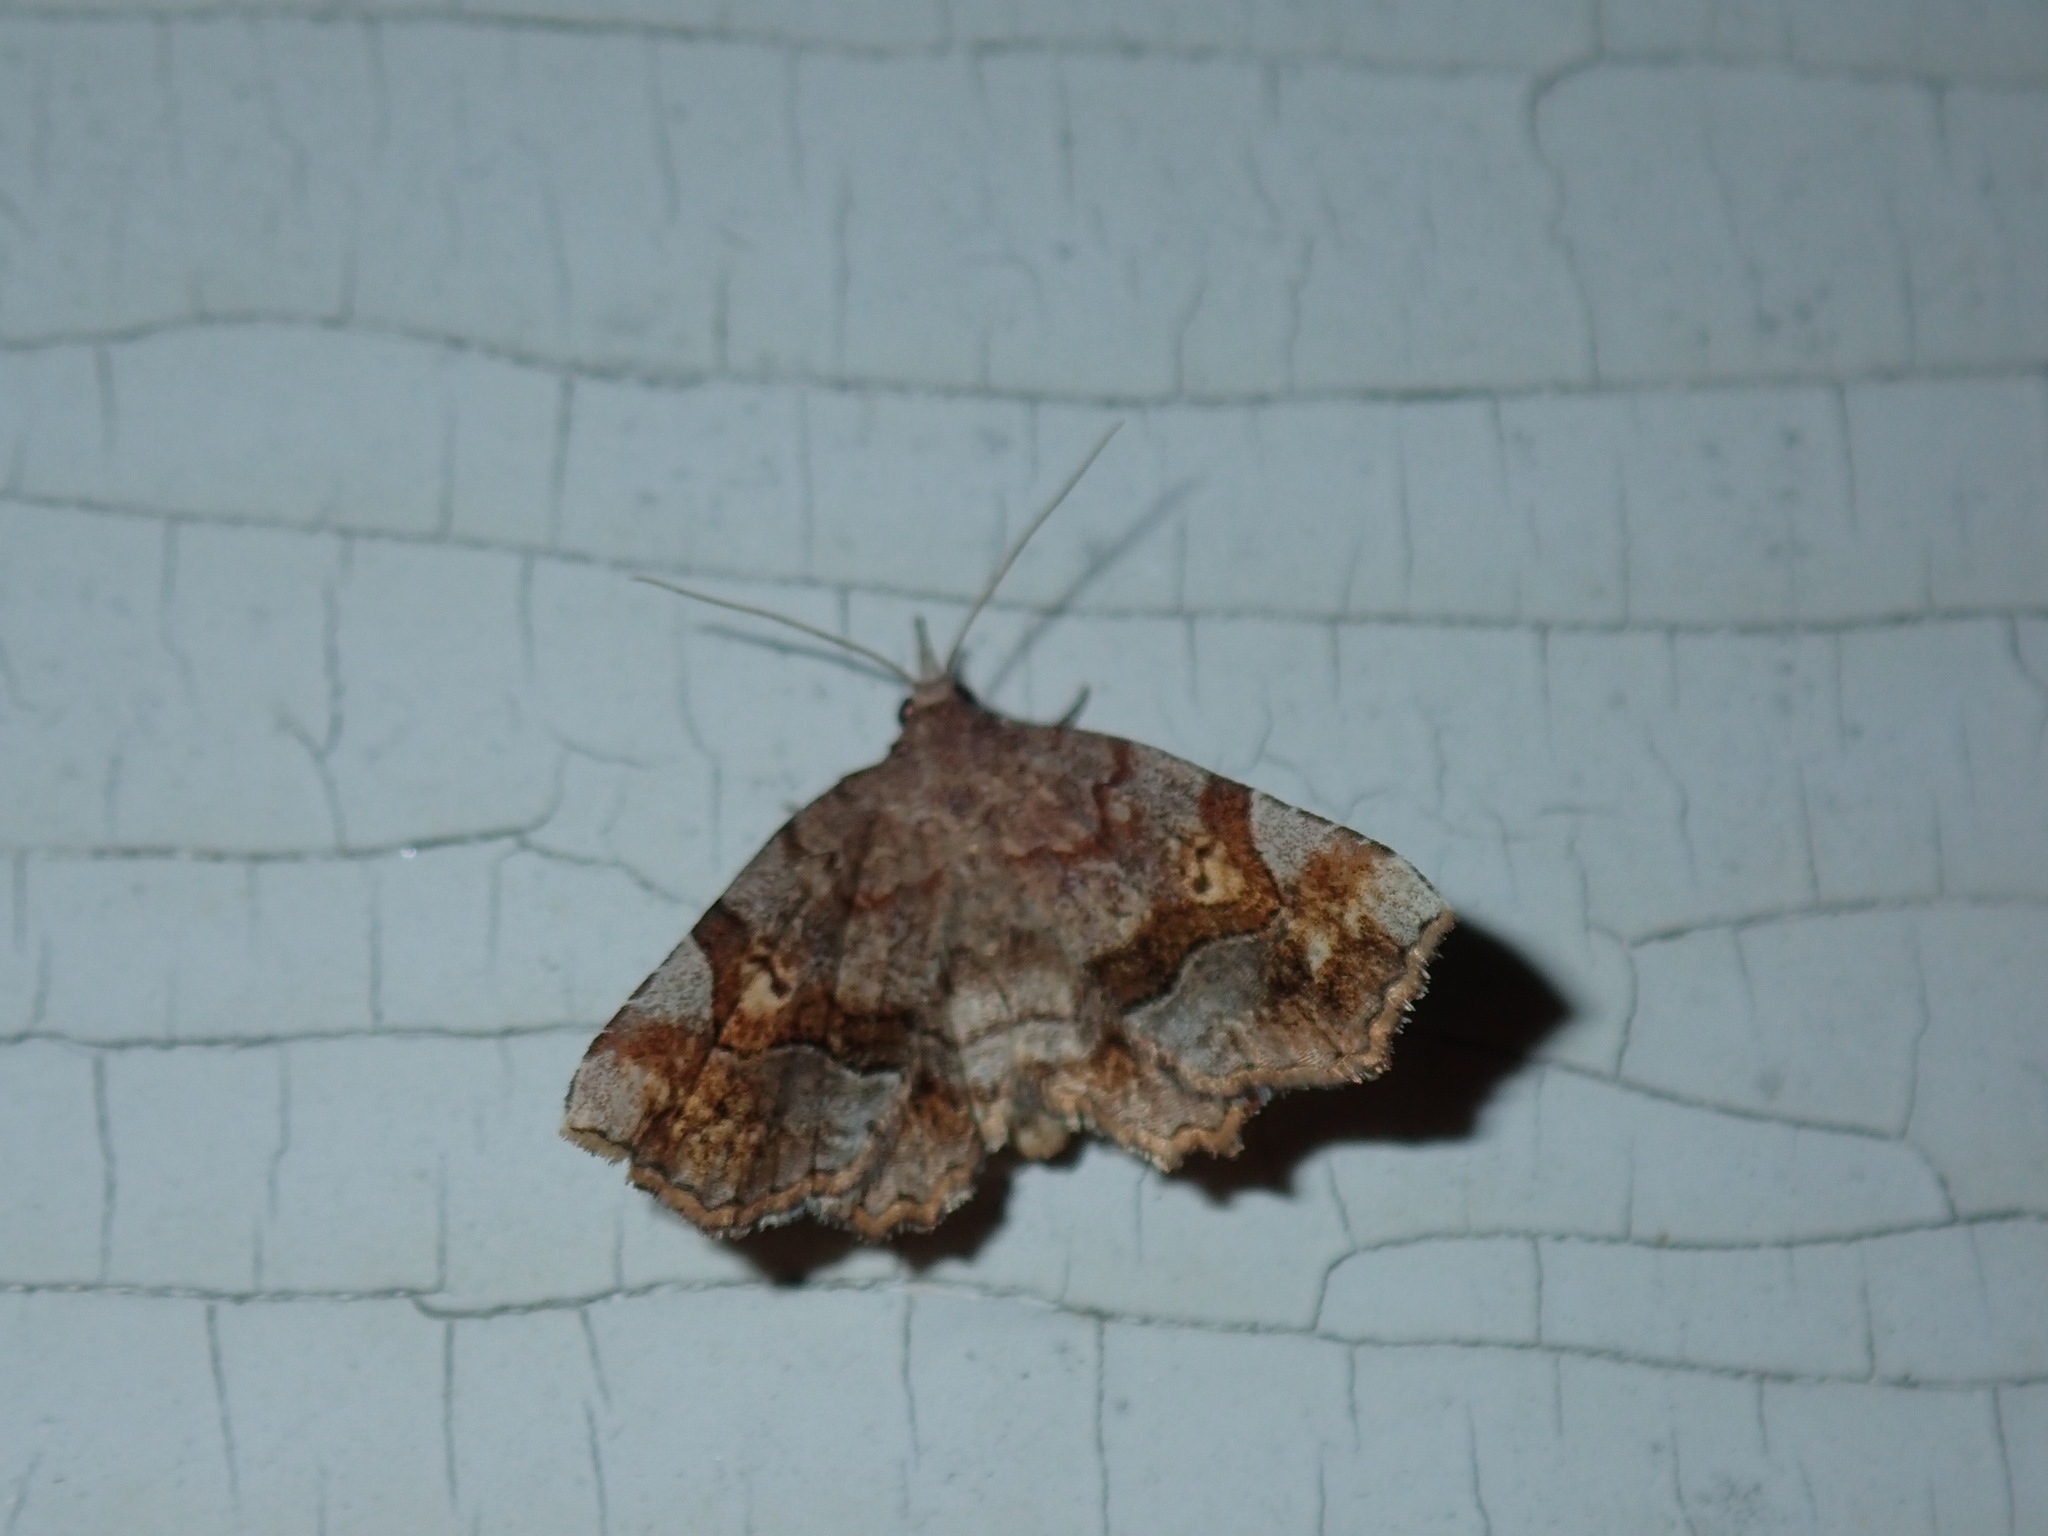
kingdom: Animalia
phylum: Arthropoda
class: Insecta
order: Lepidoptera
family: Erebidae
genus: Pangrapta
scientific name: Pangrapta decoralis
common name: Decorated owlet
